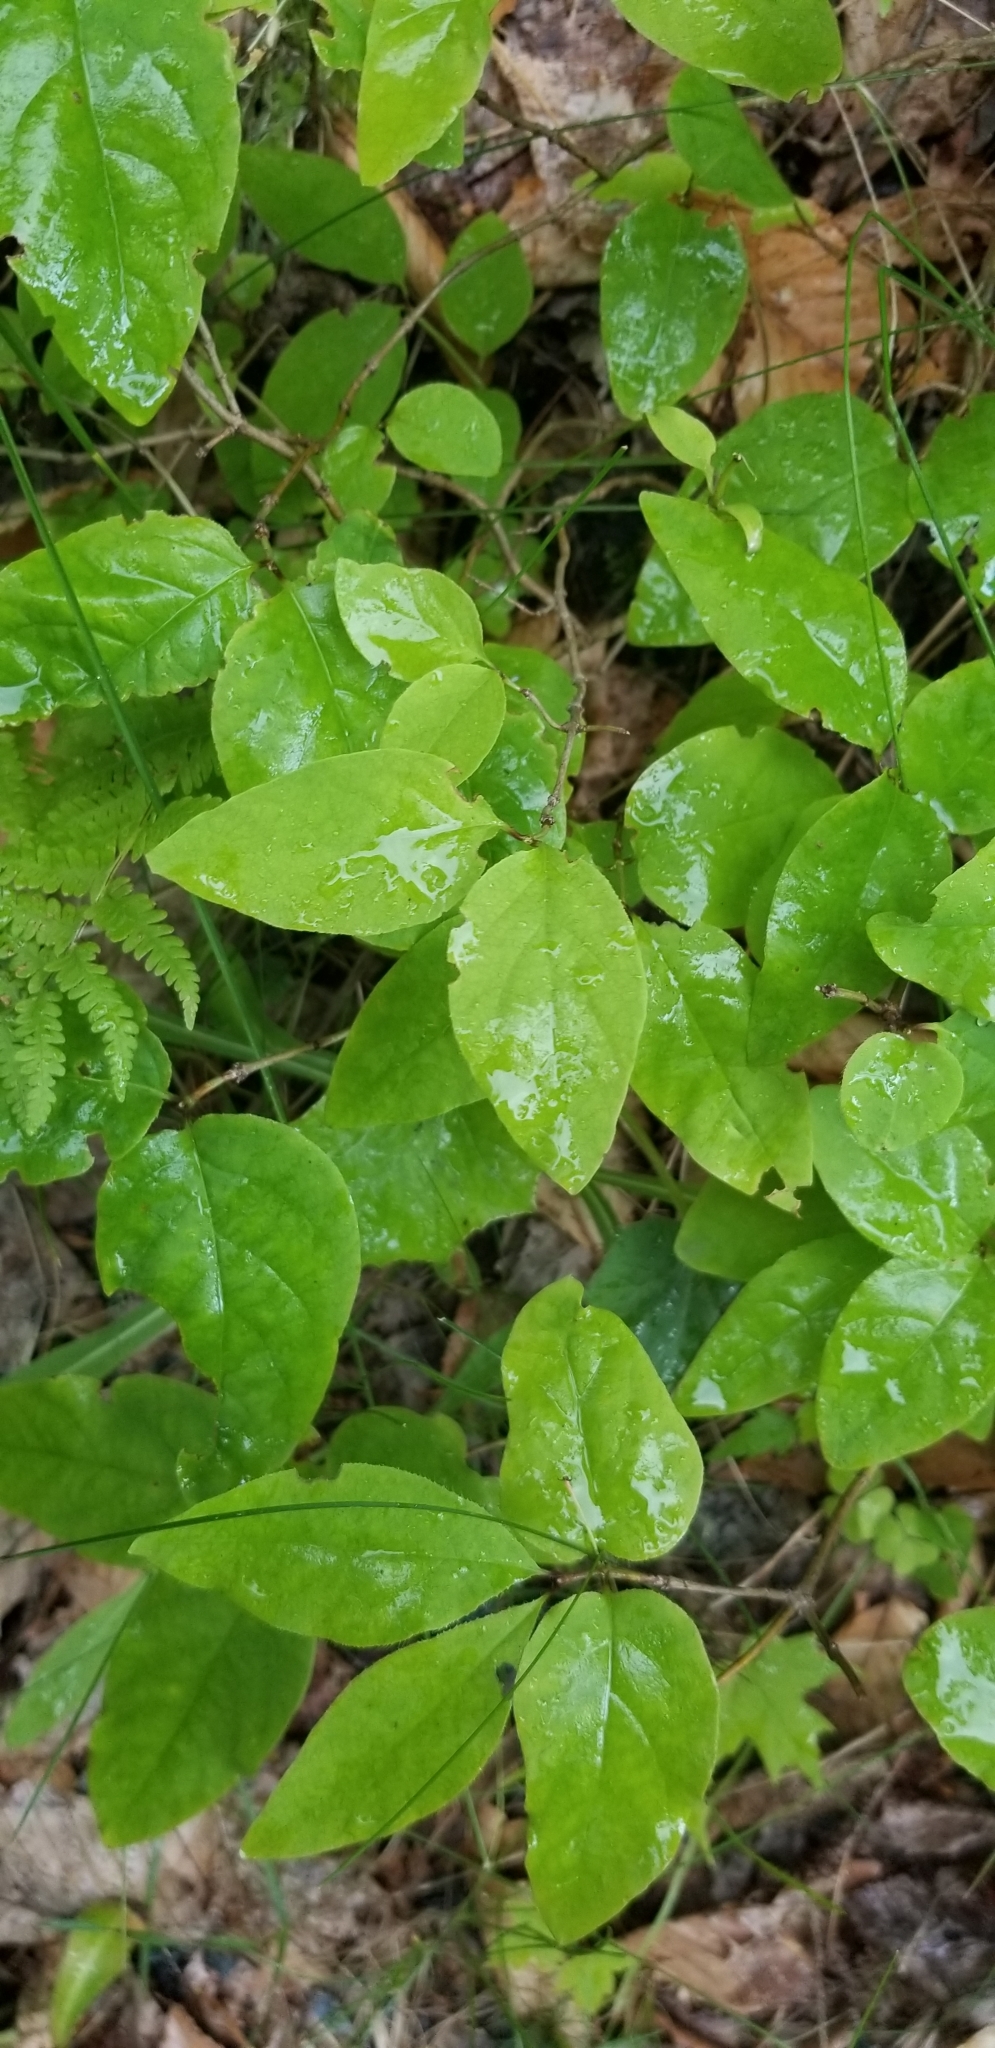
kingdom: Plantae
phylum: Tracheophyta
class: Magnoliopsida
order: Dipsacales
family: Caprifoliaceae
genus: Lonicera
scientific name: Lonicera canadensis
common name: American fly-honeysuckle
